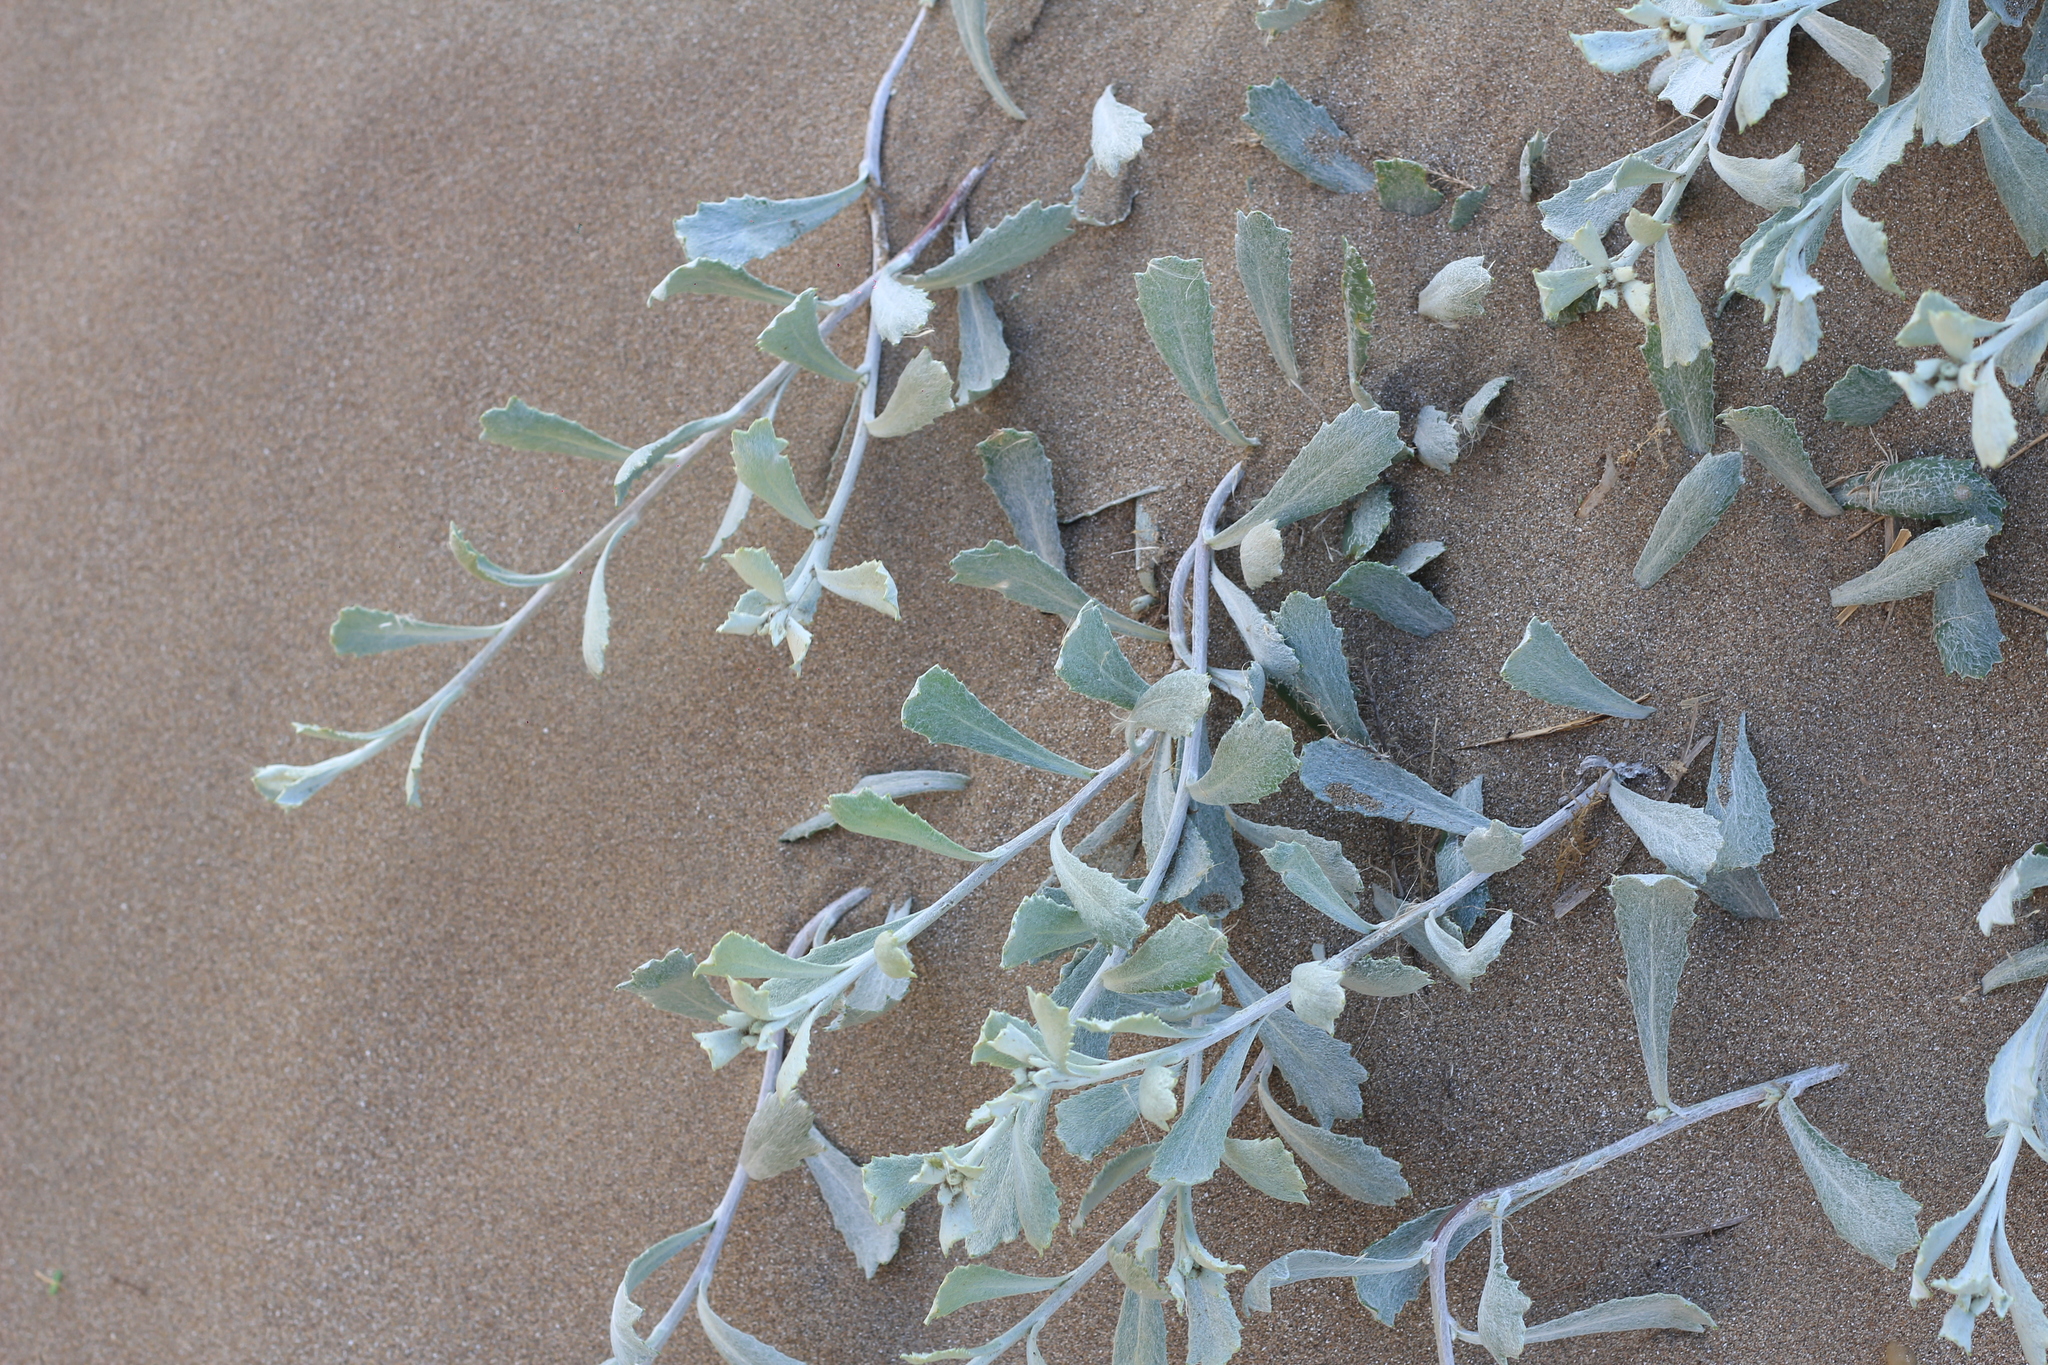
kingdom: Plantae
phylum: Tracheophyta
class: Magnoliopsida
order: Asterales
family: Asteraceae
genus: Senecio
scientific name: Senecio crassiflorus
